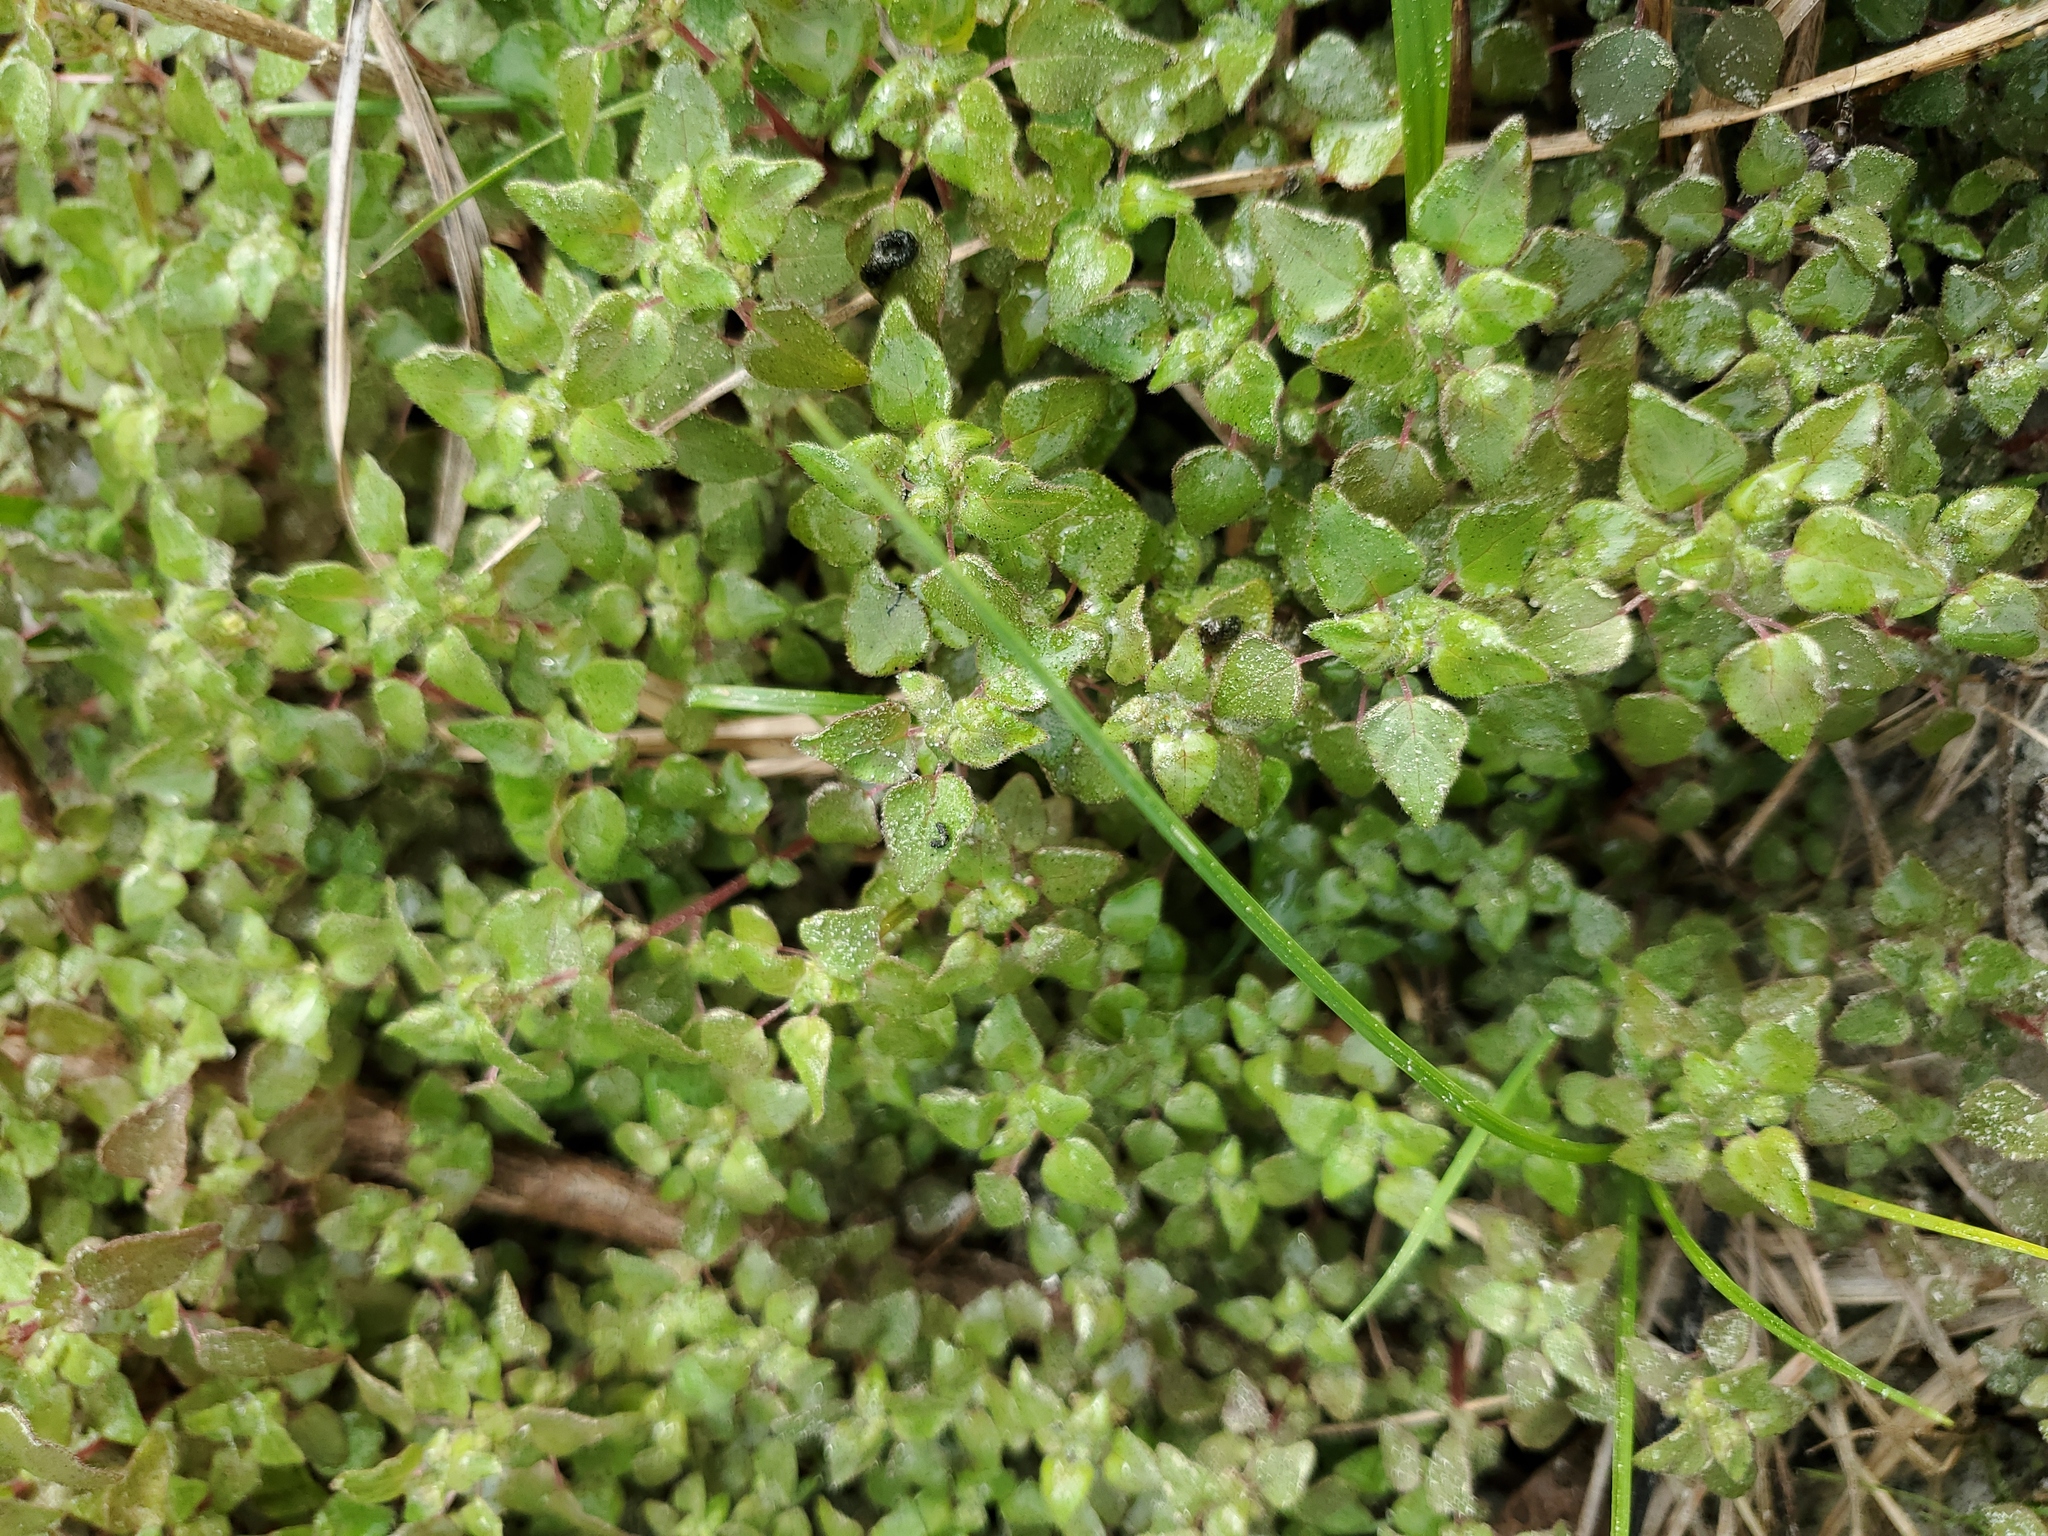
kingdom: Plantae
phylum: Tracheophyta
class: Magnoliopsida
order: Rosales
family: Urticaceae
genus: Parietaria
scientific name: Parietaria floridana
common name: Florida pellitory
